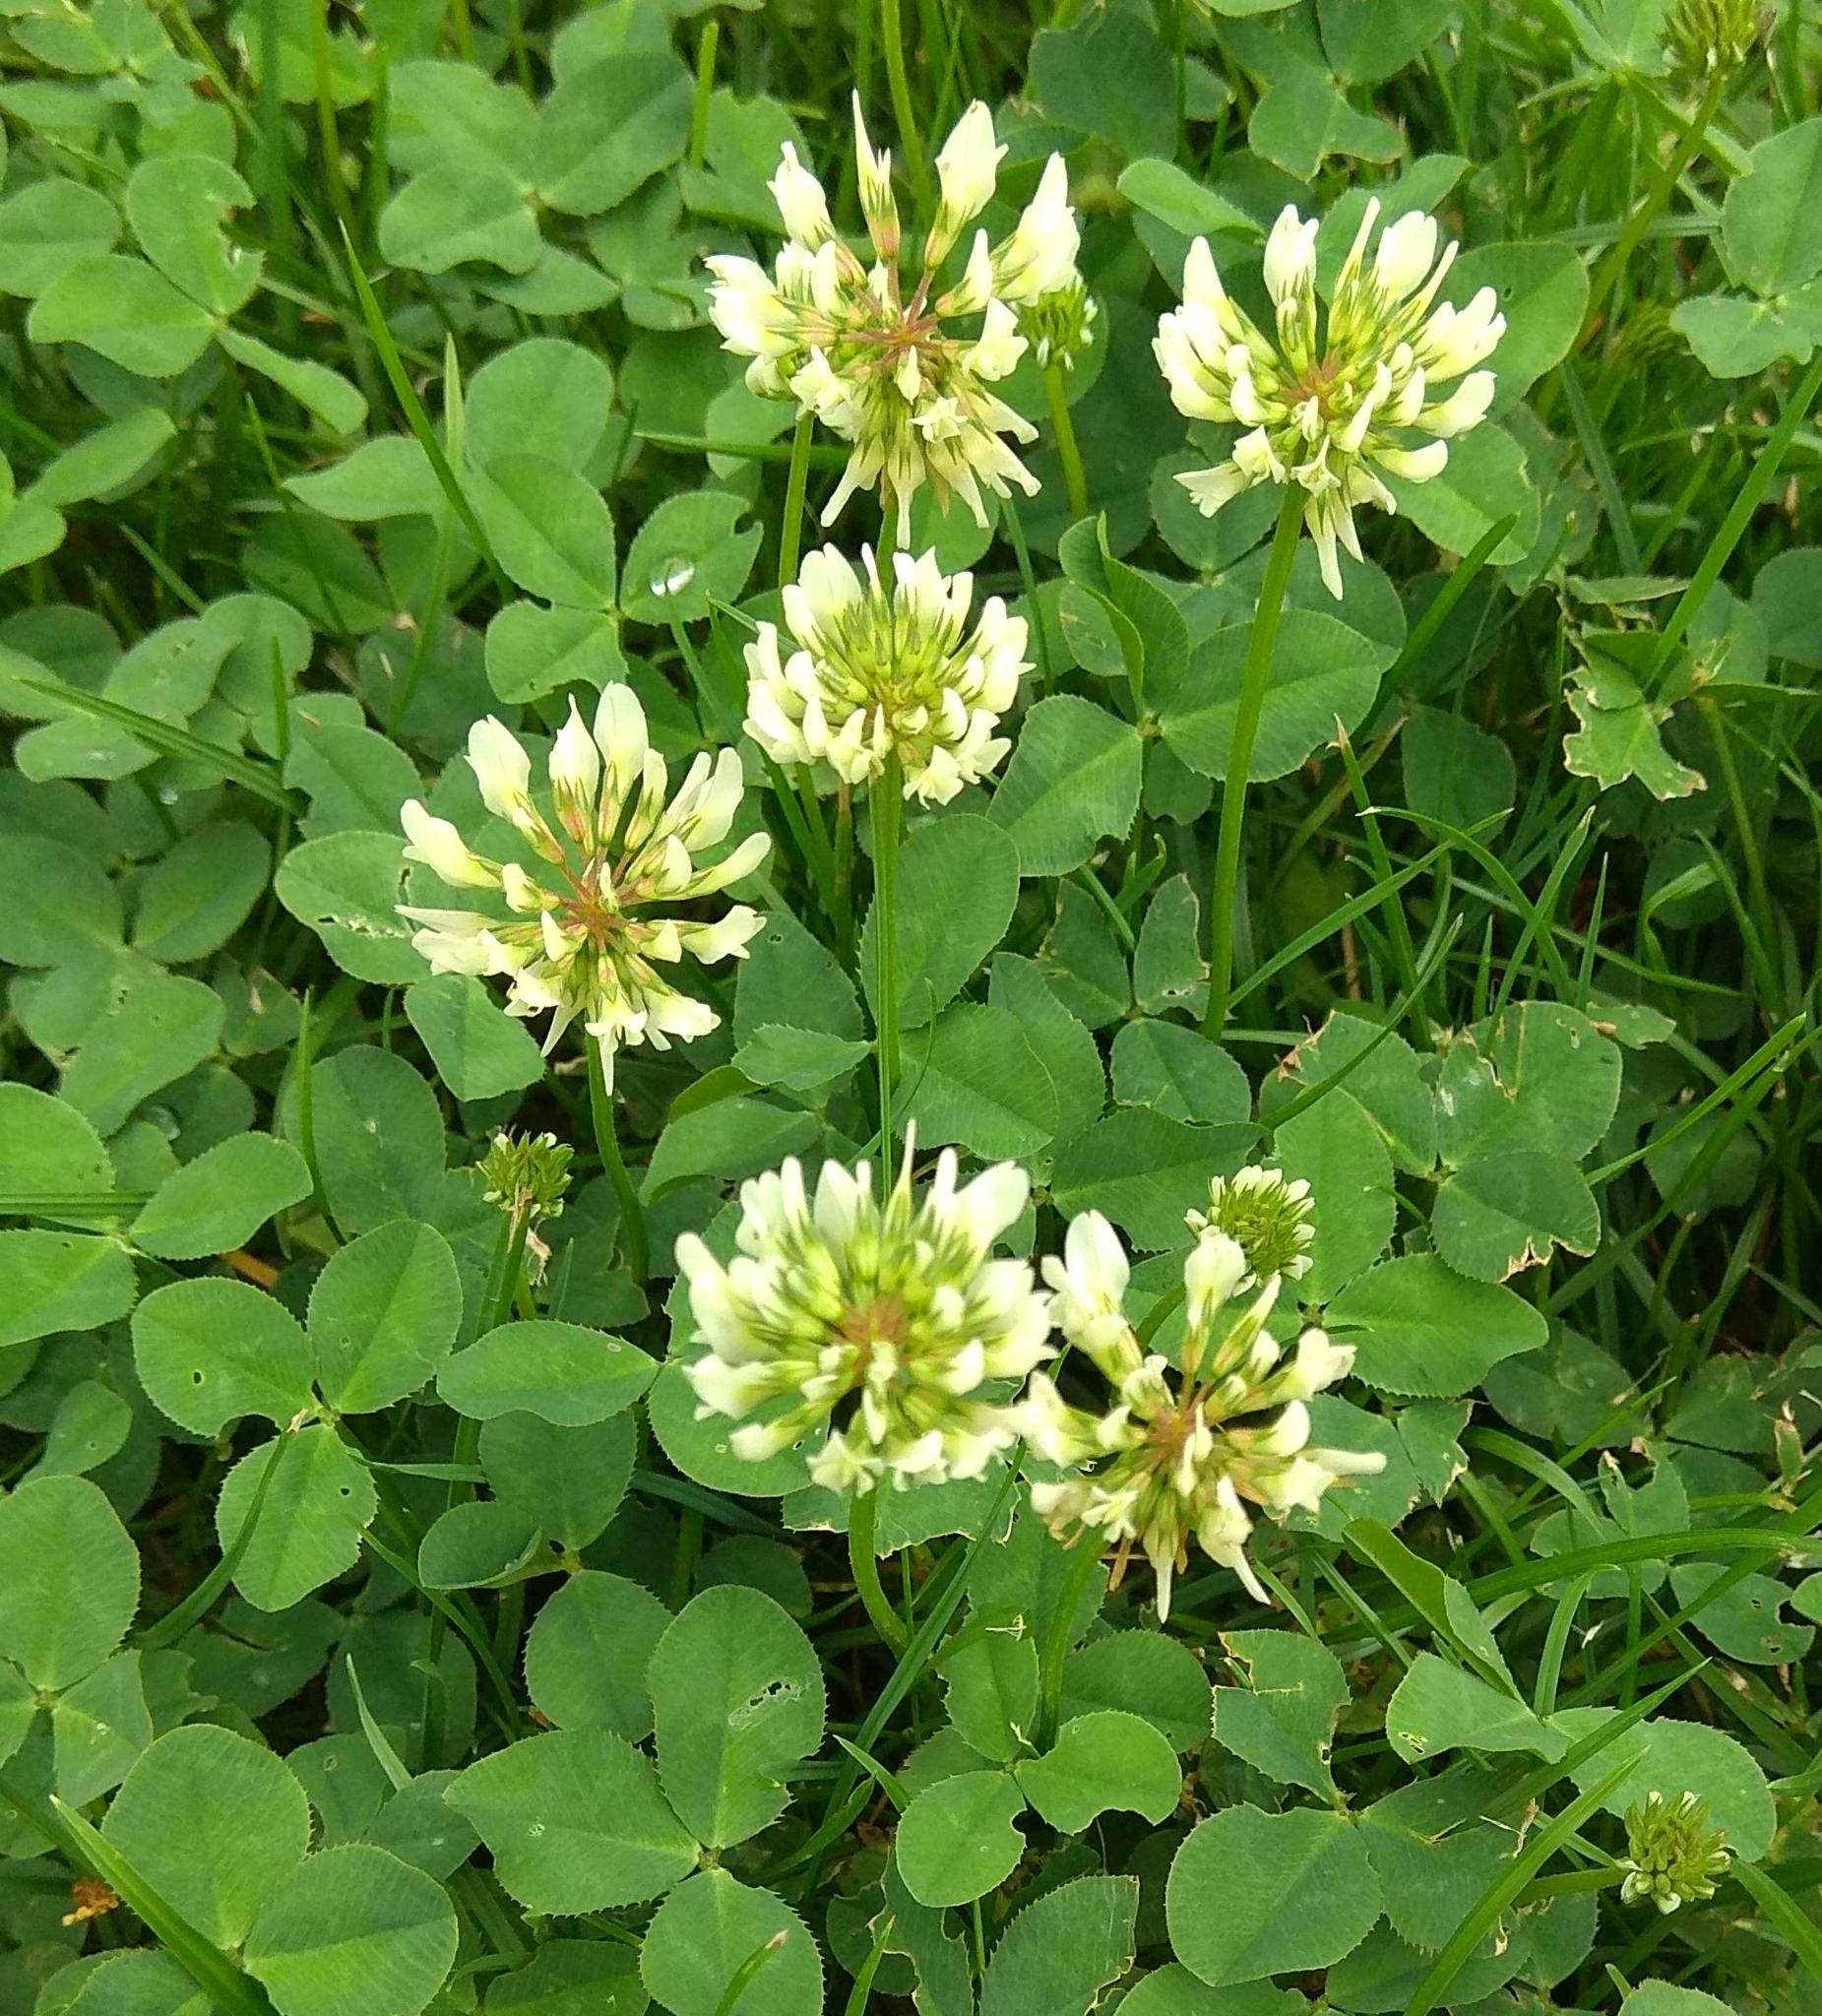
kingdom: Plantae
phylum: Tracheophyta
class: Magnoliopsida
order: Fabales
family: Fabaceae
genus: Trifolium
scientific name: Trifolium repens
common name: White clover
